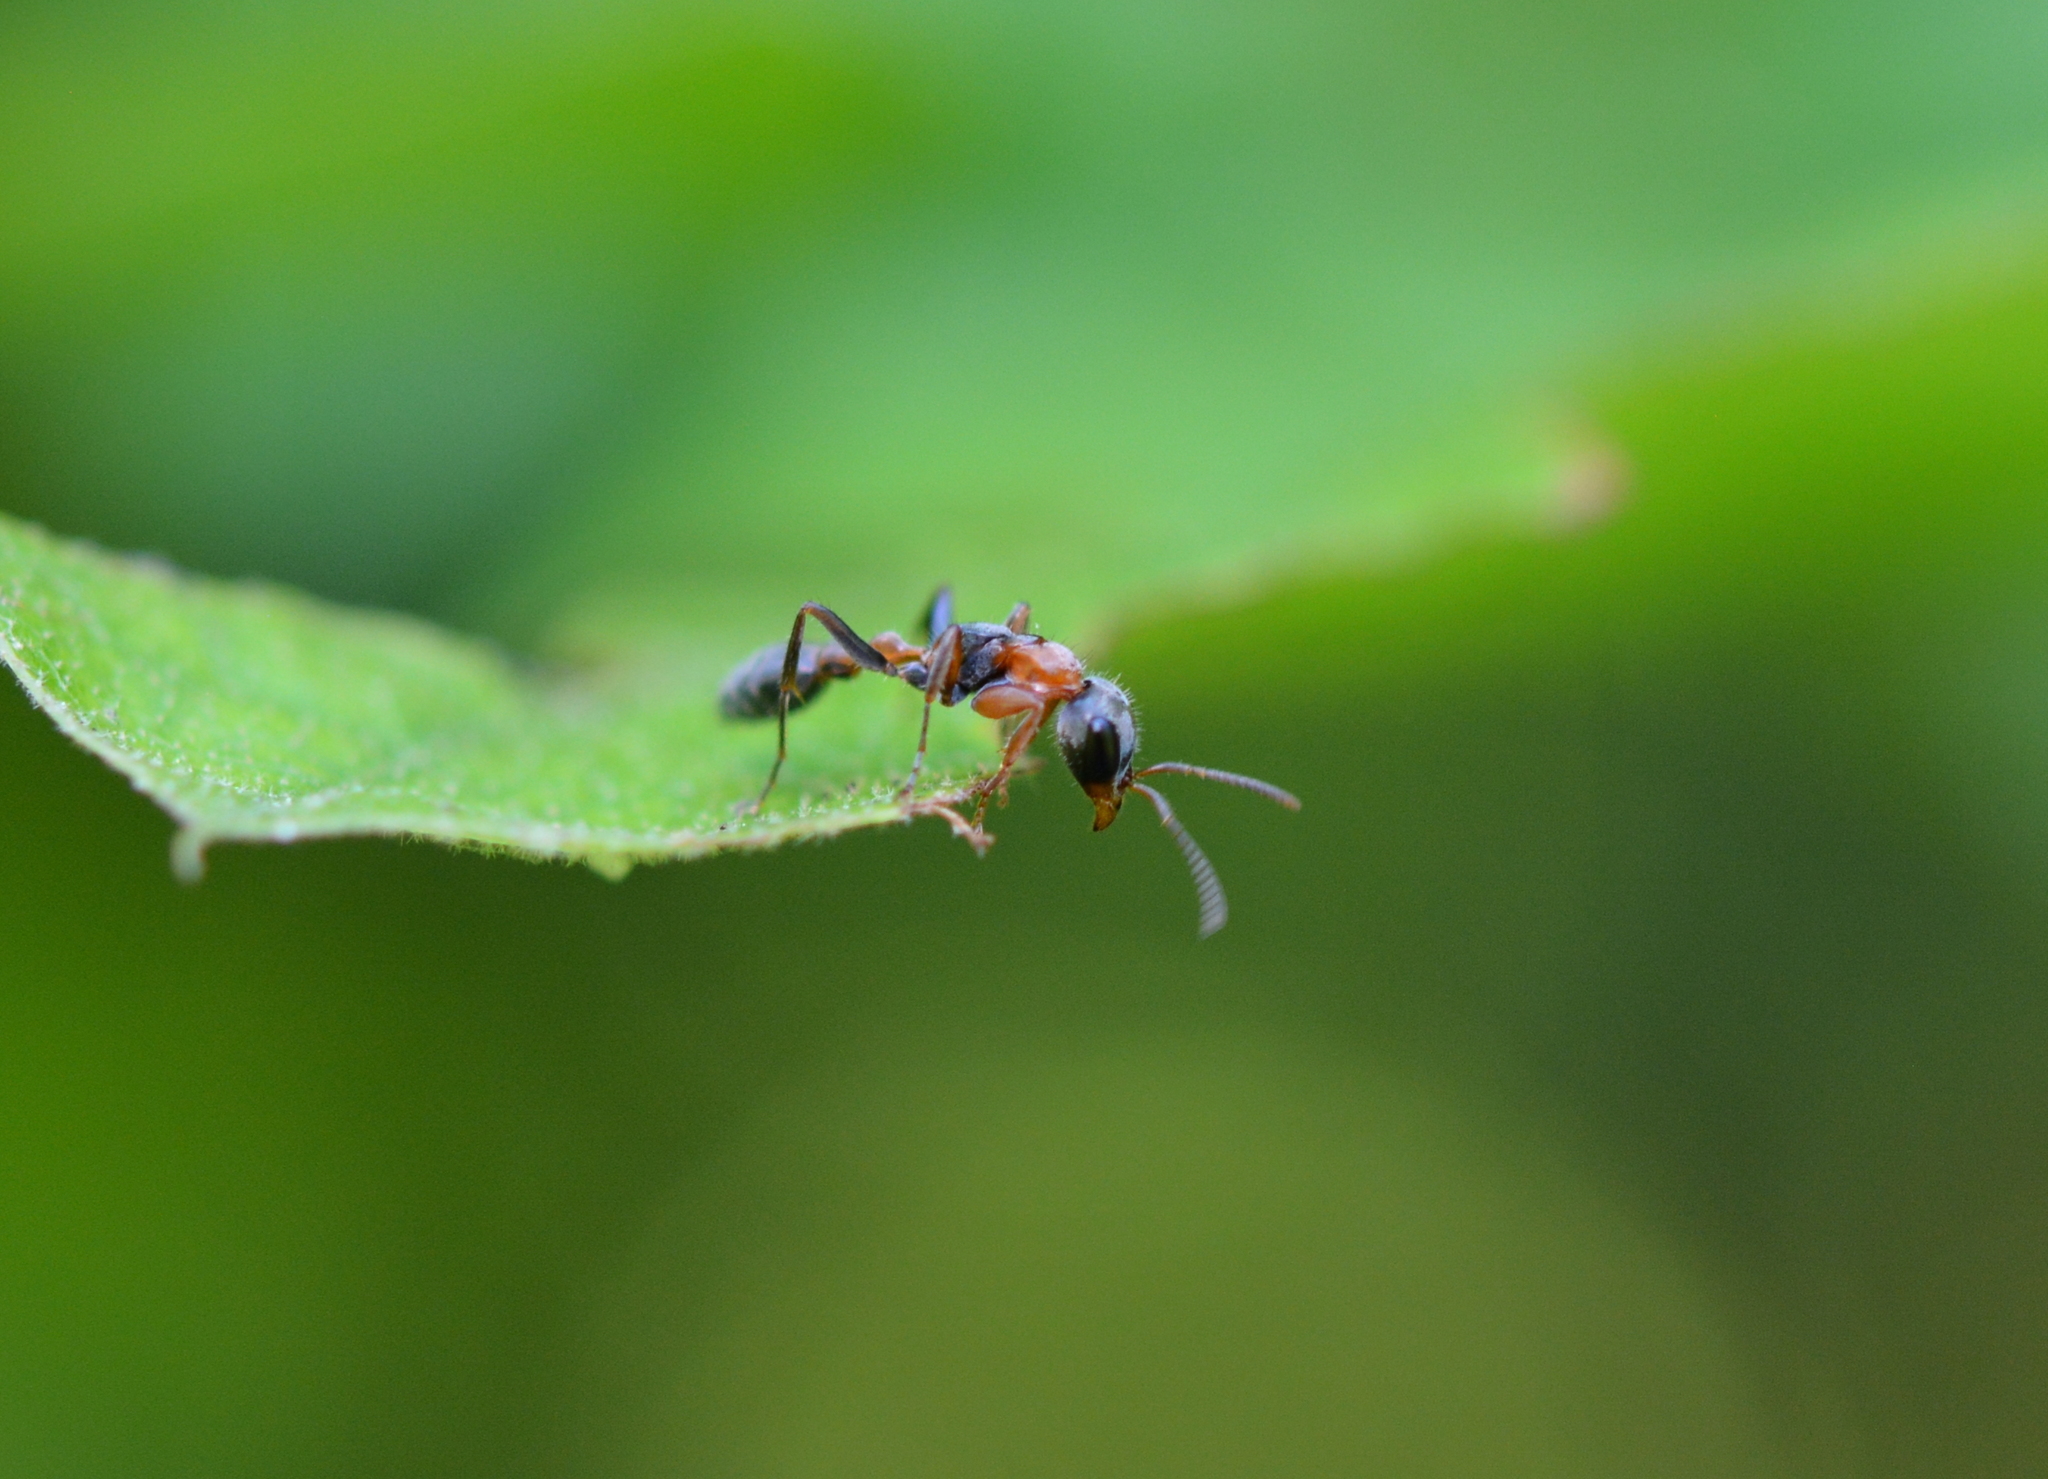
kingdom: Animalia
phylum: Arthropoda
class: Insecta
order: Hymenoptera
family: Formicidae
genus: Pseudomyrmex
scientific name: Pseudomyrmex gracilis
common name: Graceful twig ant
